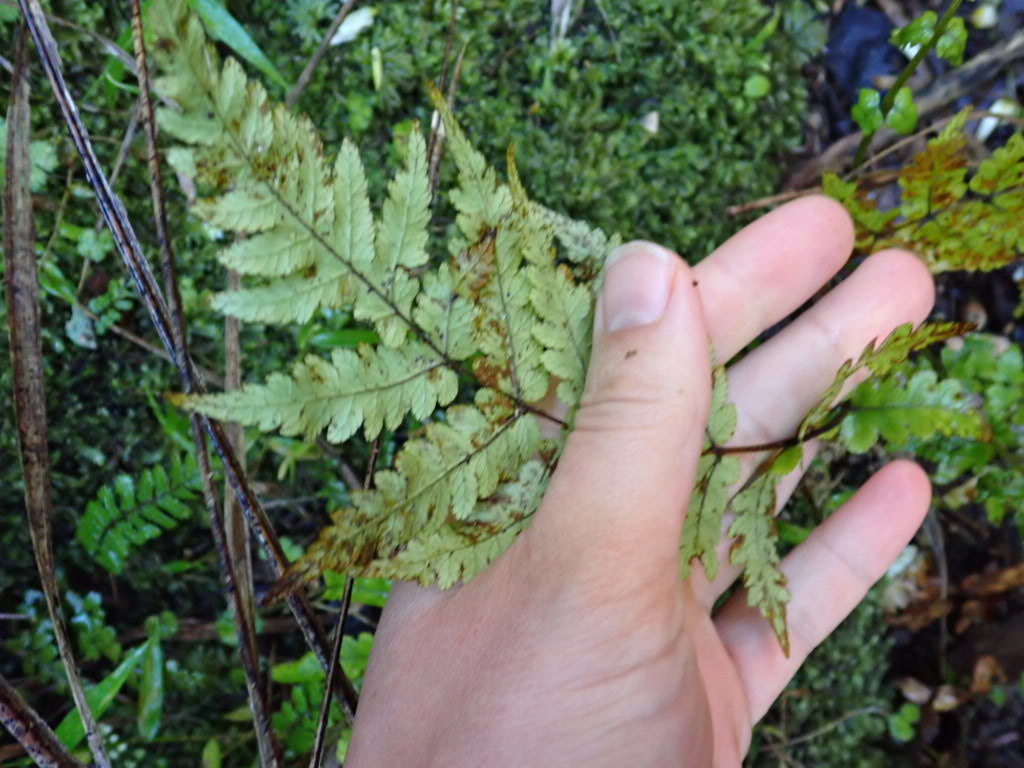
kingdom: Plantae
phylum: Tracheophyta
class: Polypodiopsida
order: Polypodiales
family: Thelypteridaceae
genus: Pakau
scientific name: Pakau pennigera
